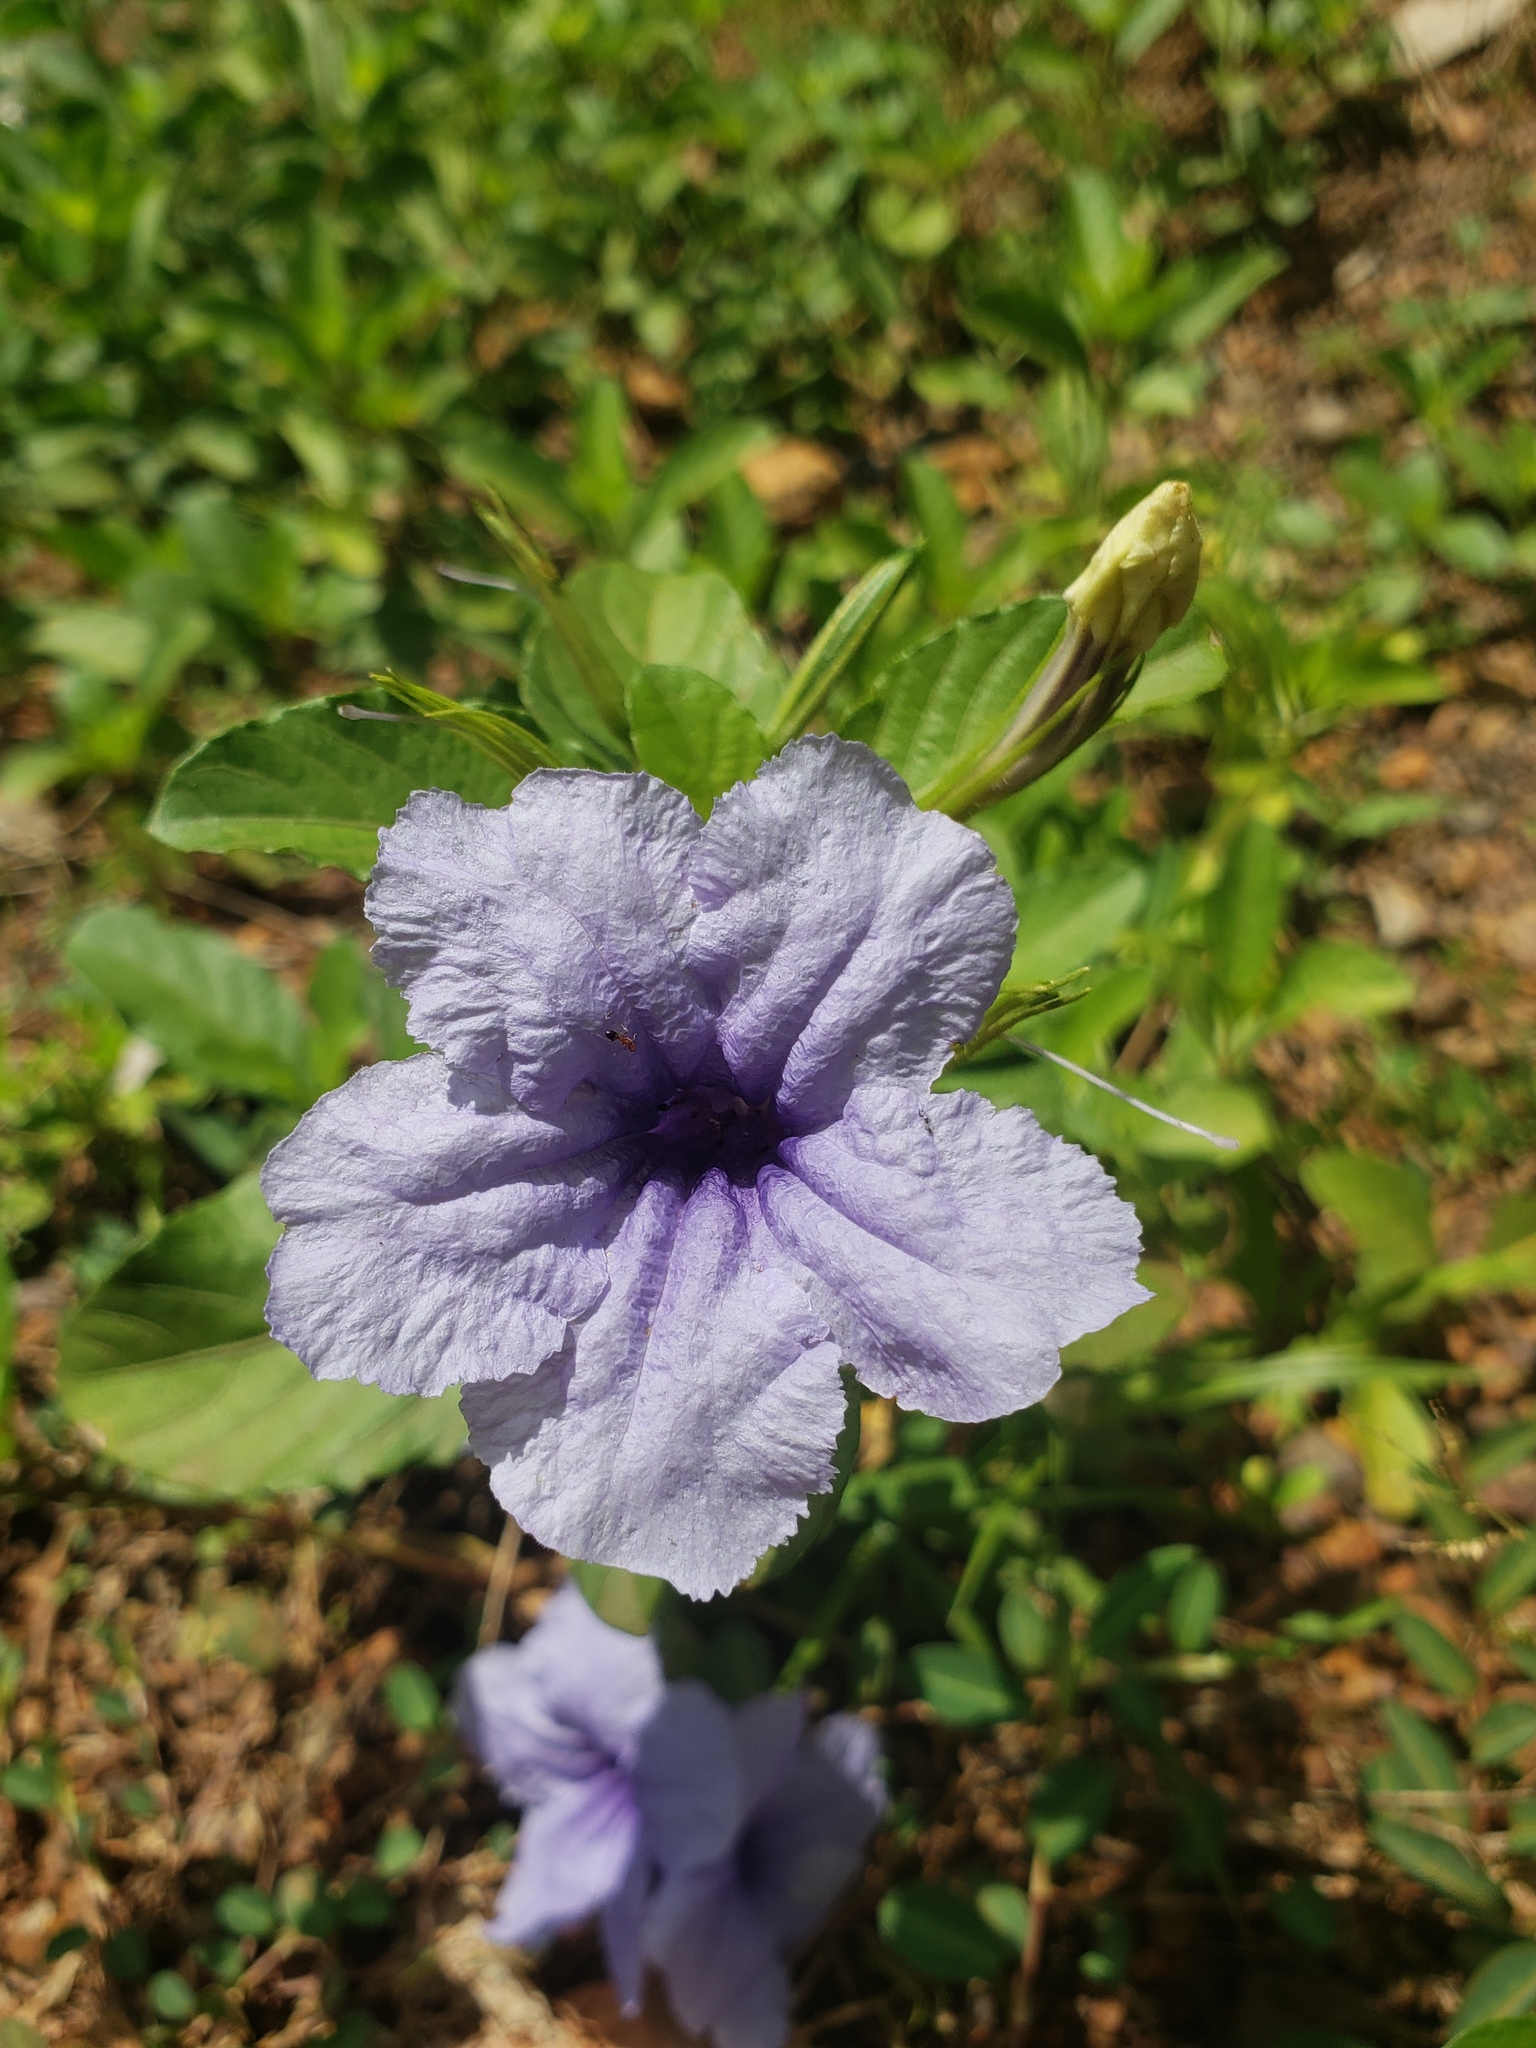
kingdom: Plantae
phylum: Tracheophyta
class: Magnoliopsida
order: Lamiales
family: Acanthaceae
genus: Ruellia
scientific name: Ruellia tuberosa
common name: Devil's bit
